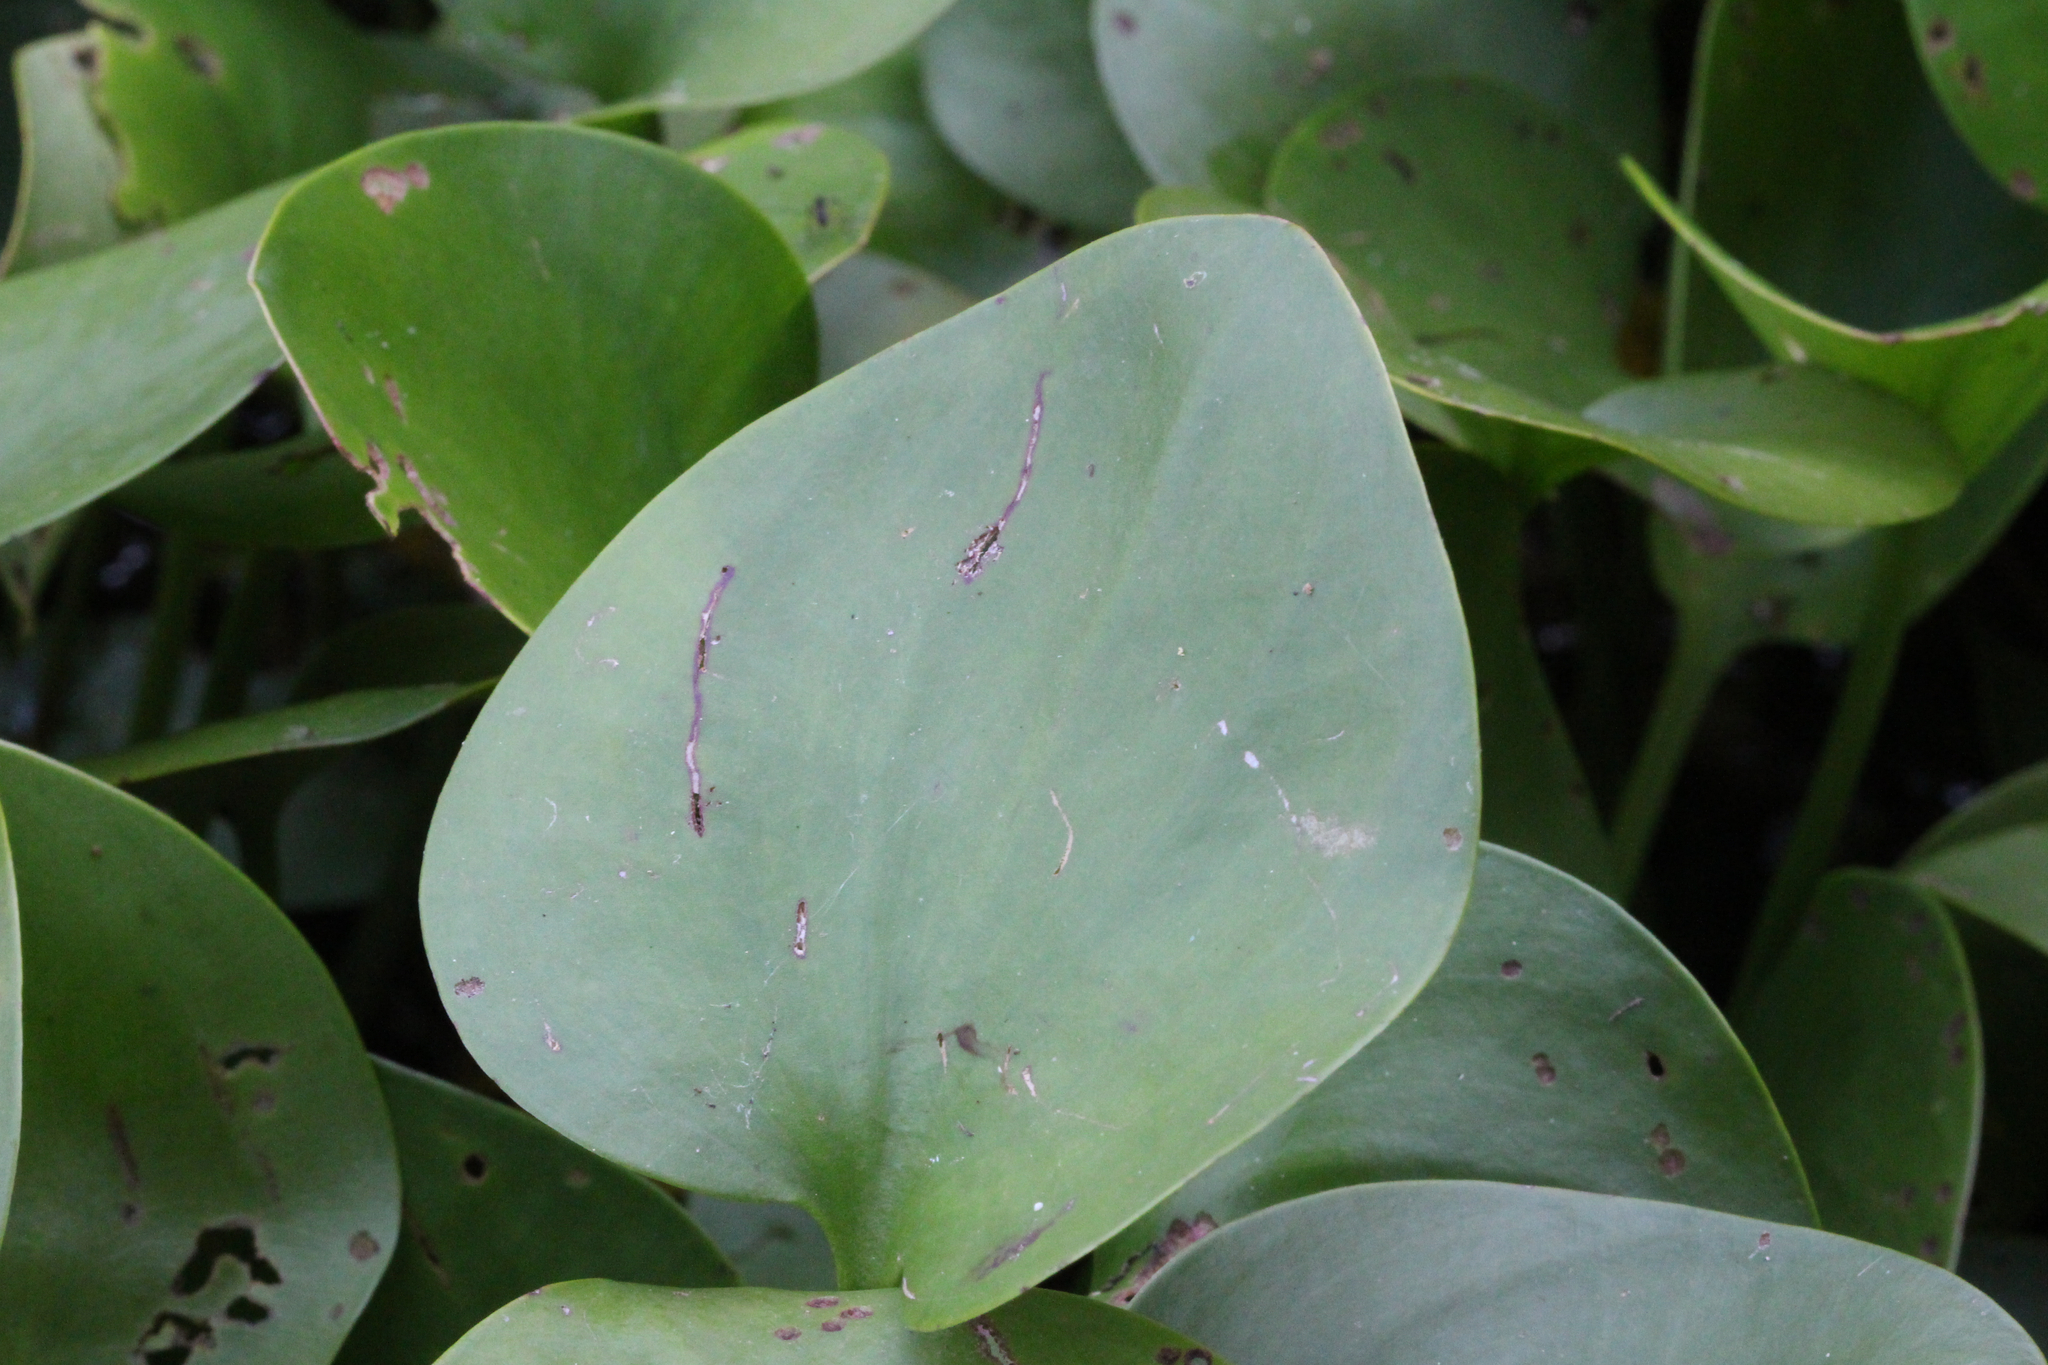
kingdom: Plantae
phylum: Tracheophyta
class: Liliopsida
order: Alismatales
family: Hydrocharitaceae
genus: Hydrocharis
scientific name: Hydrocharis spongia
